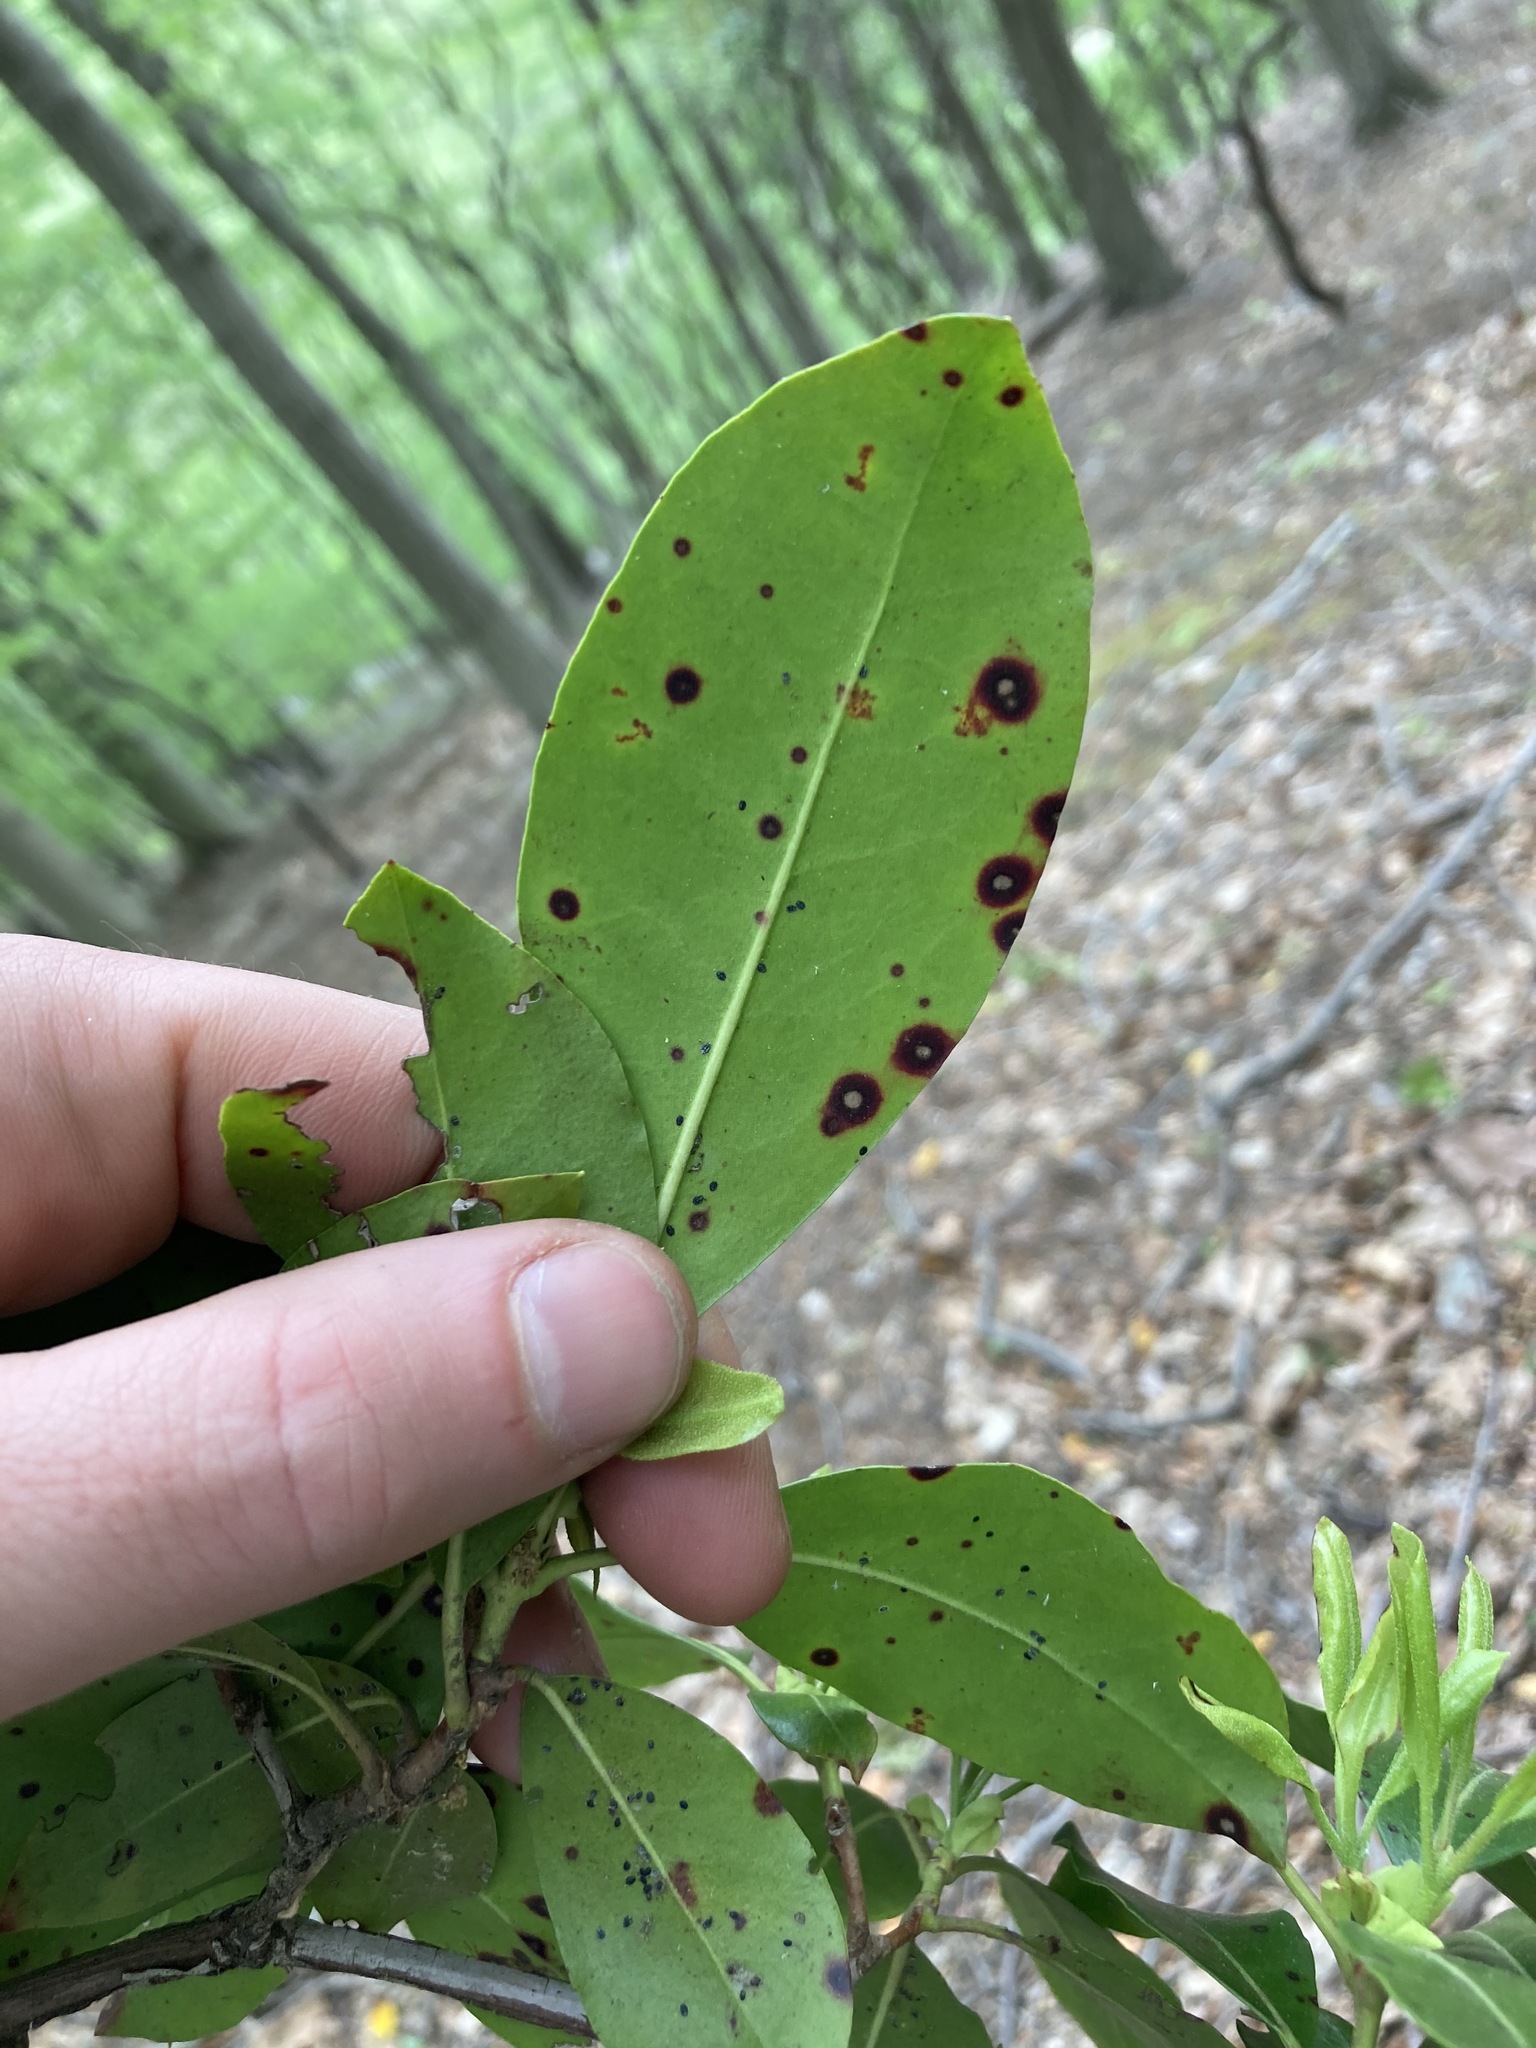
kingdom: Plantae
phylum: Tracheophyta
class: Magnoliopsida
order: Ericales
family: Ericaceae
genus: Kalmia
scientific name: Kalmia latifolia
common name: Mountain-laurel
